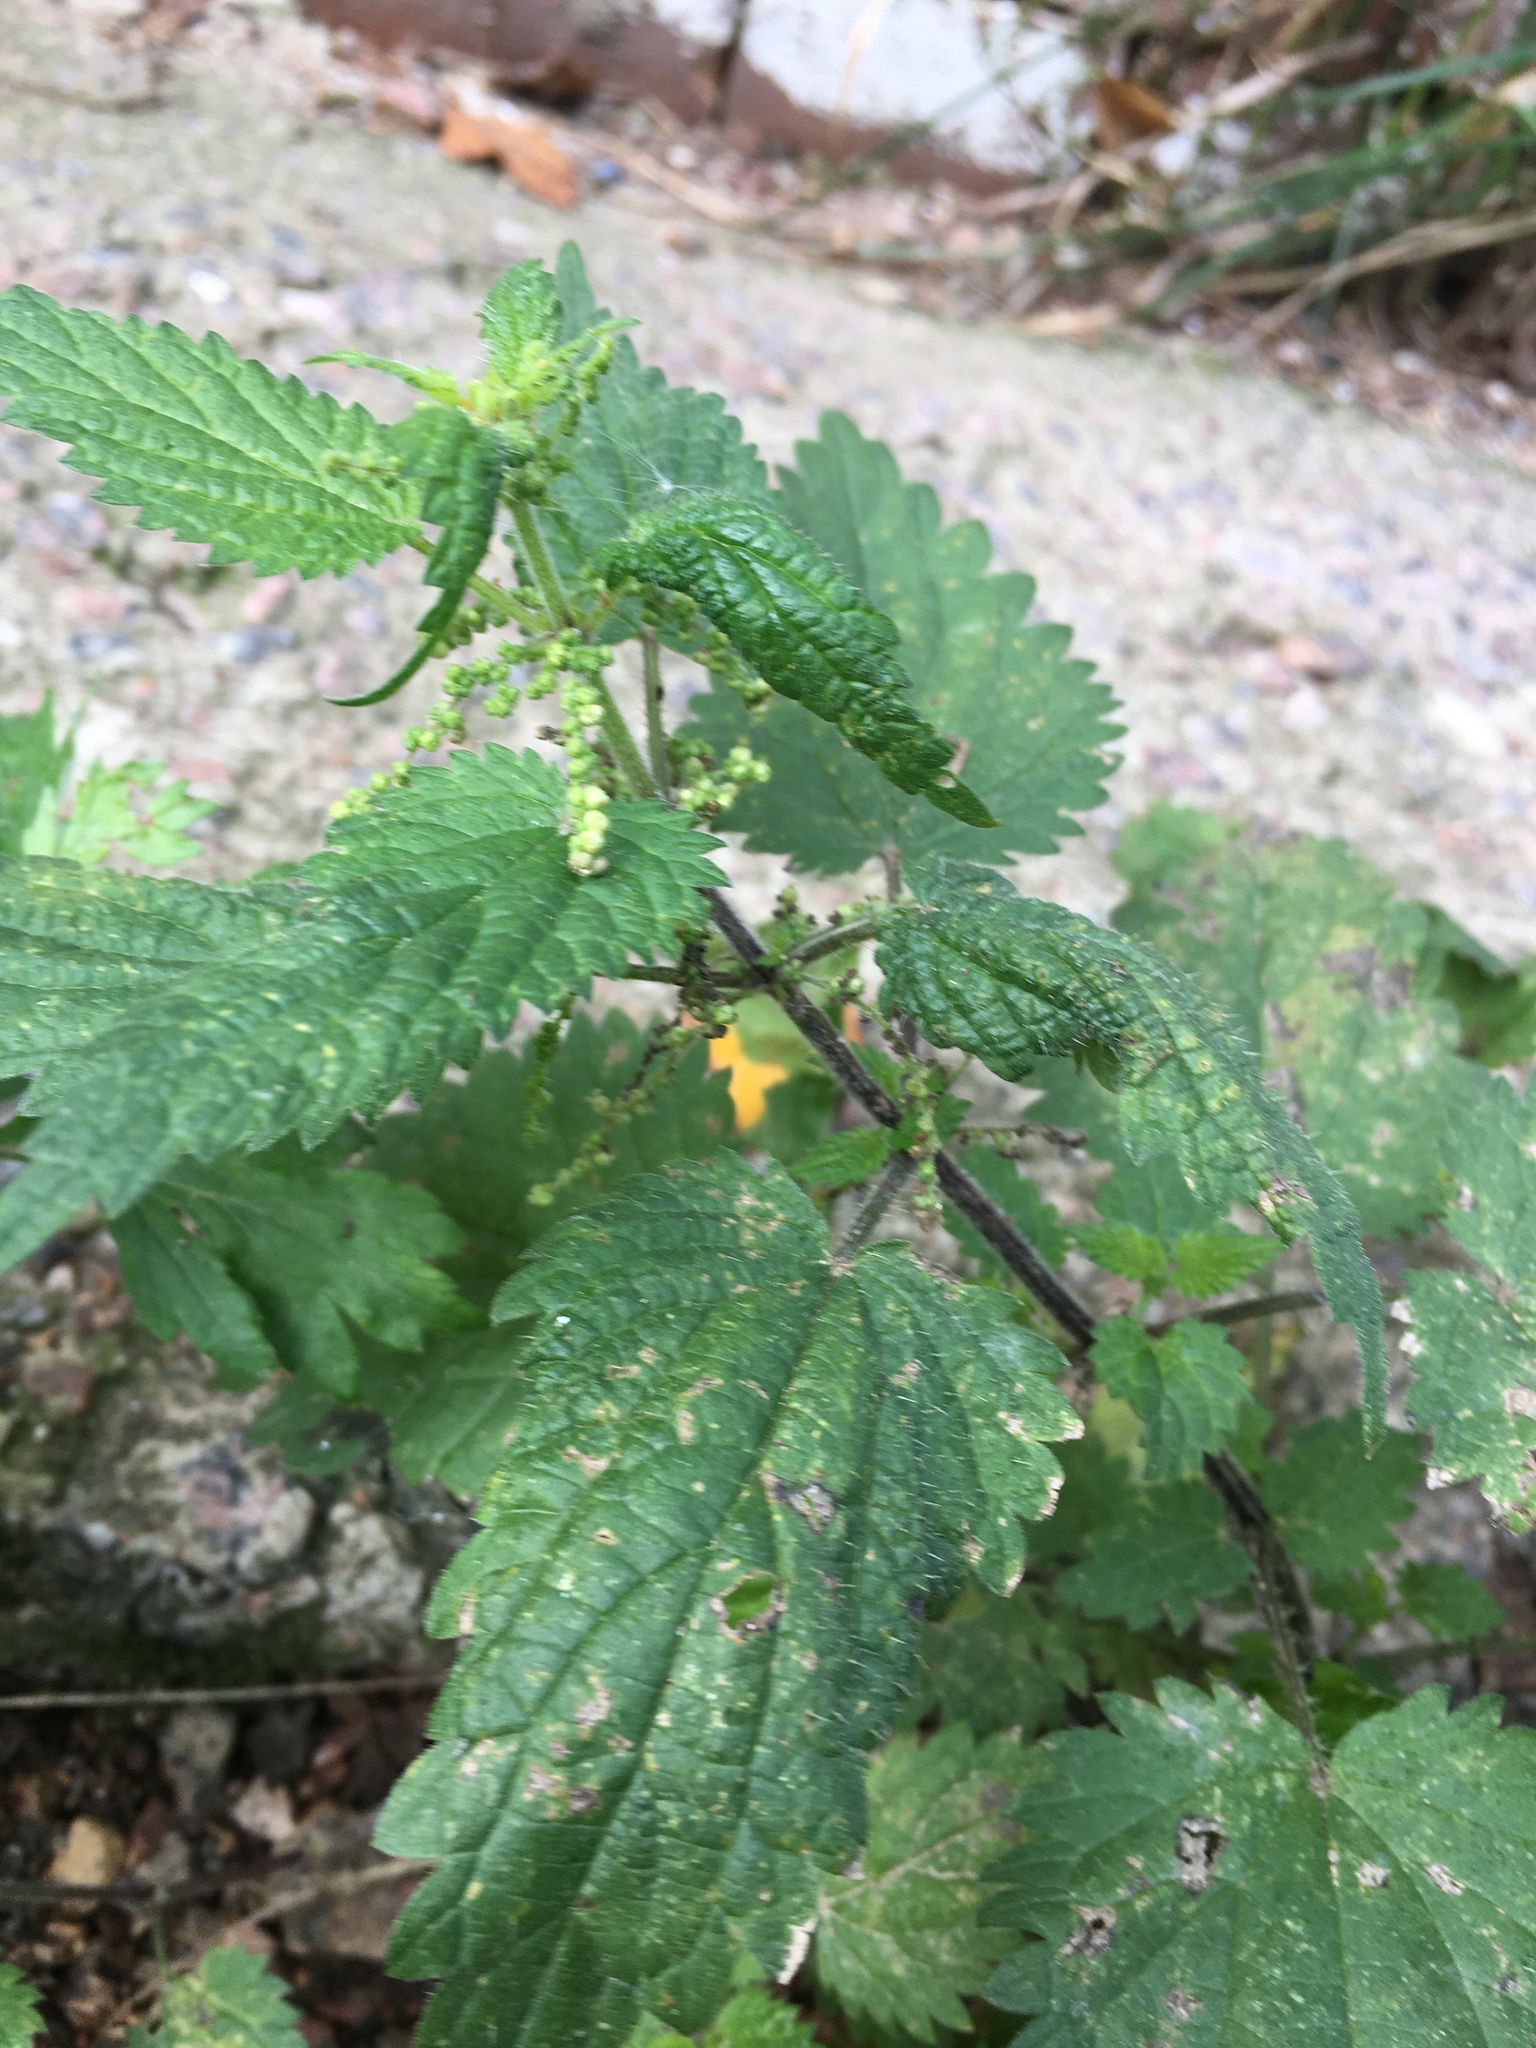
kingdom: Plantae
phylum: Tracheophyta
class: Magnoliopsida
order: Rosales
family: Urticaceae
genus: Urtica
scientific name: Urtica dioica
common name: Common nettle
